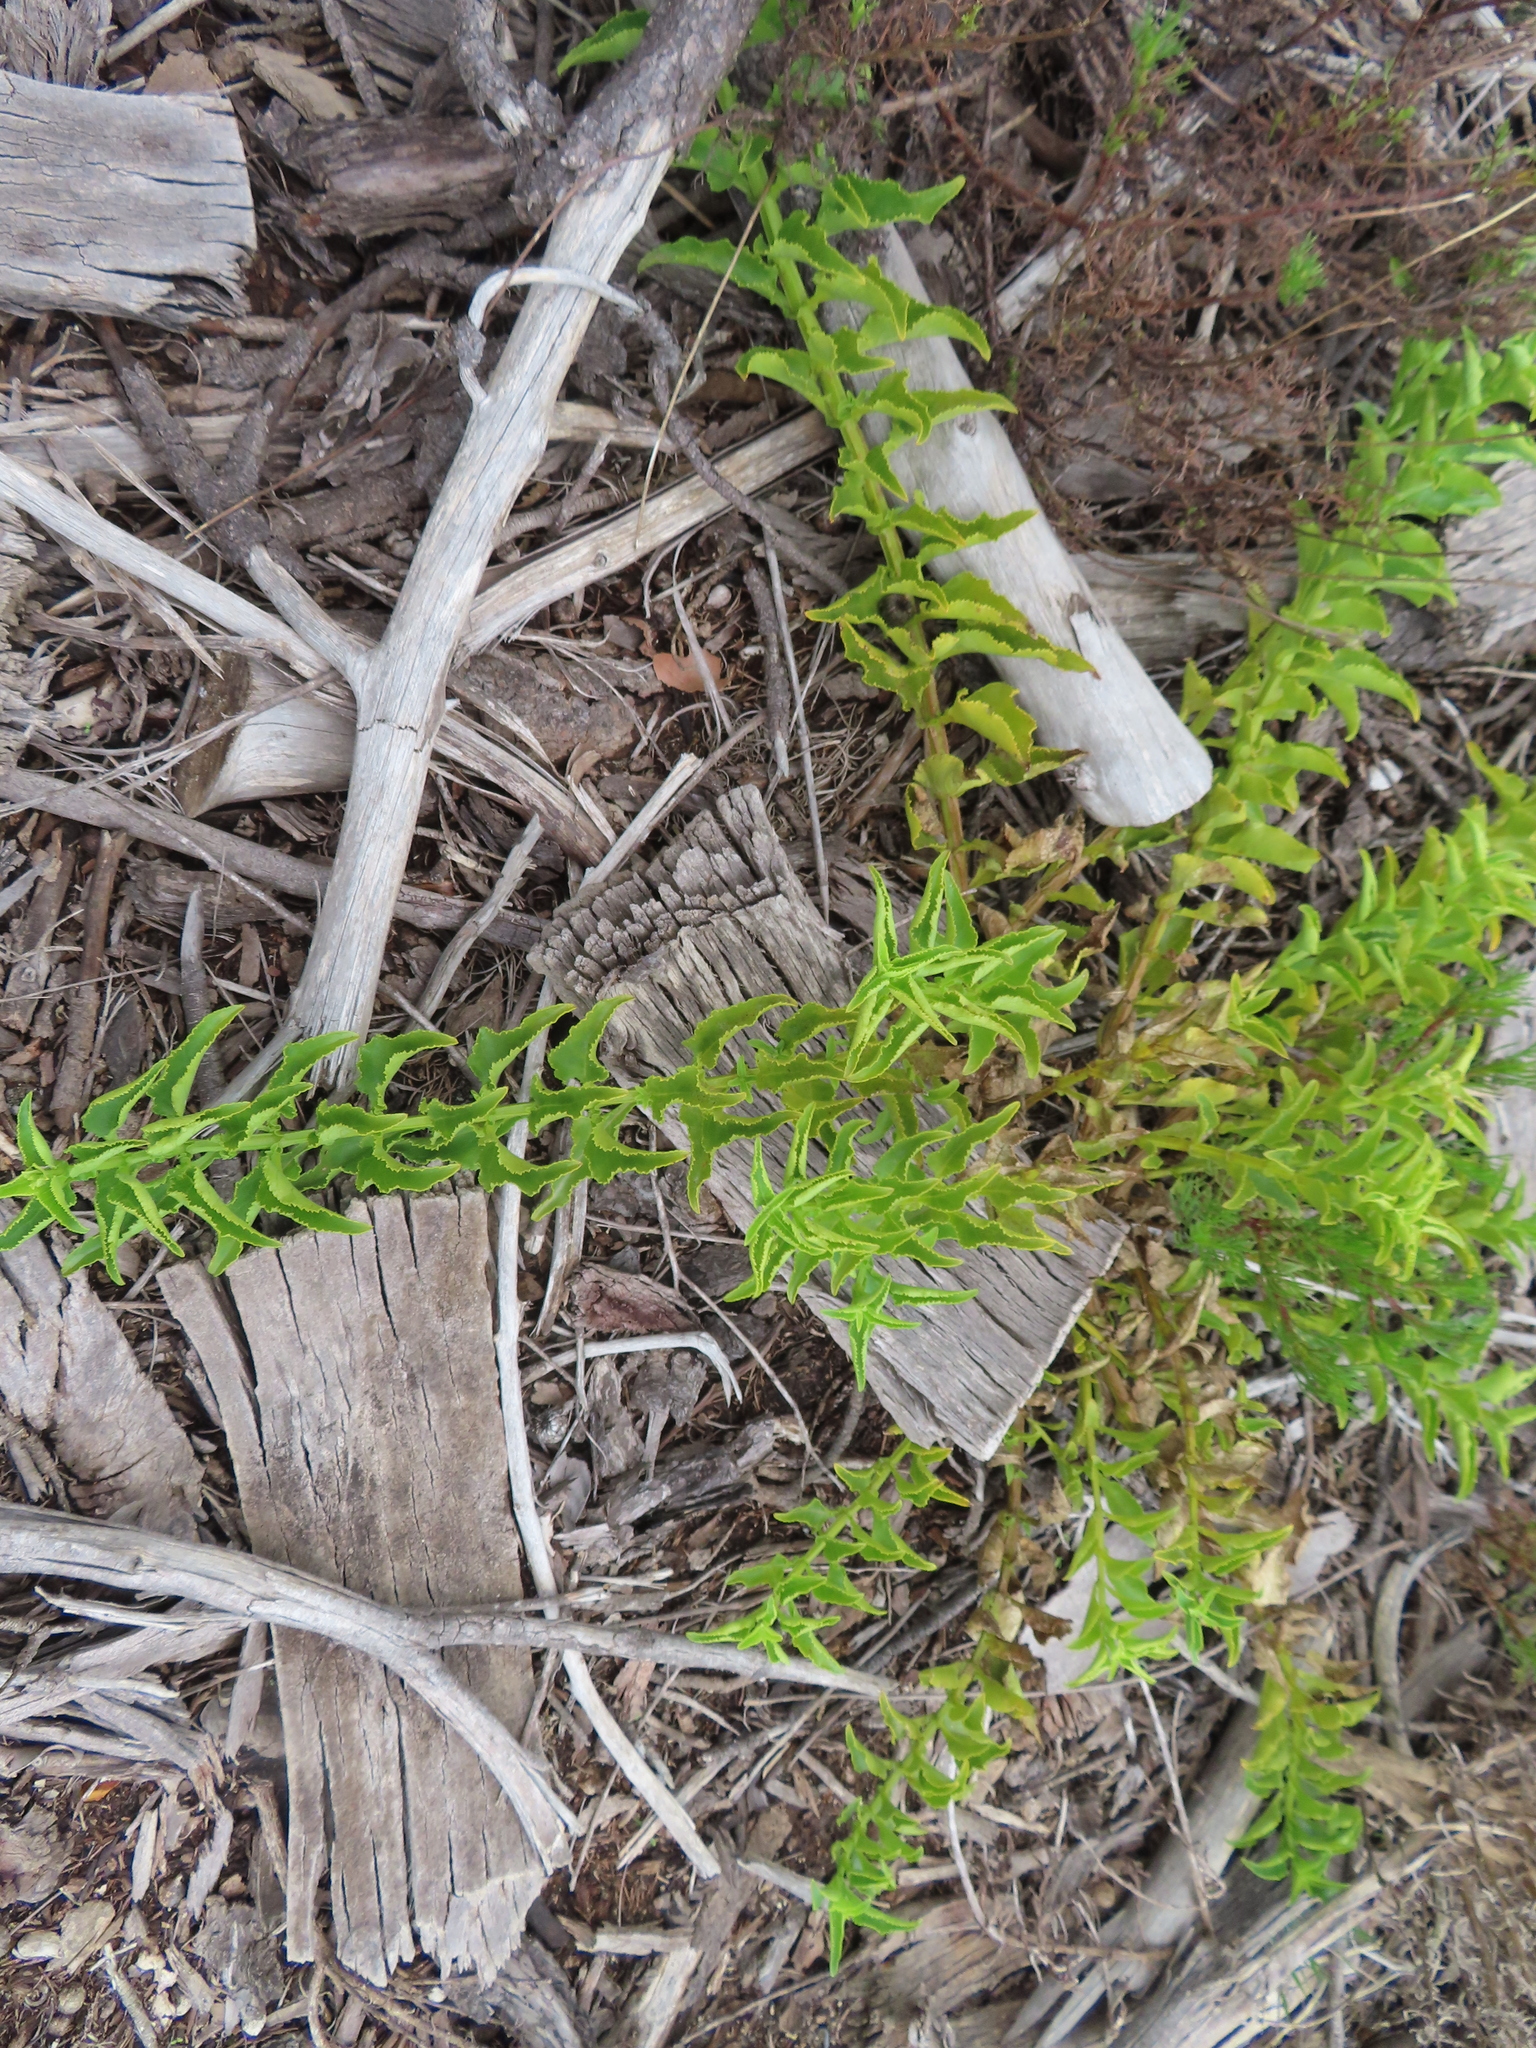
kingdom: Plantae
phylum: Tracheophyta
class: Magnoliopsida
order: Lamiales
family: Scrophulariaceae
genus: Teedia
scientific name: Teedia lucida
